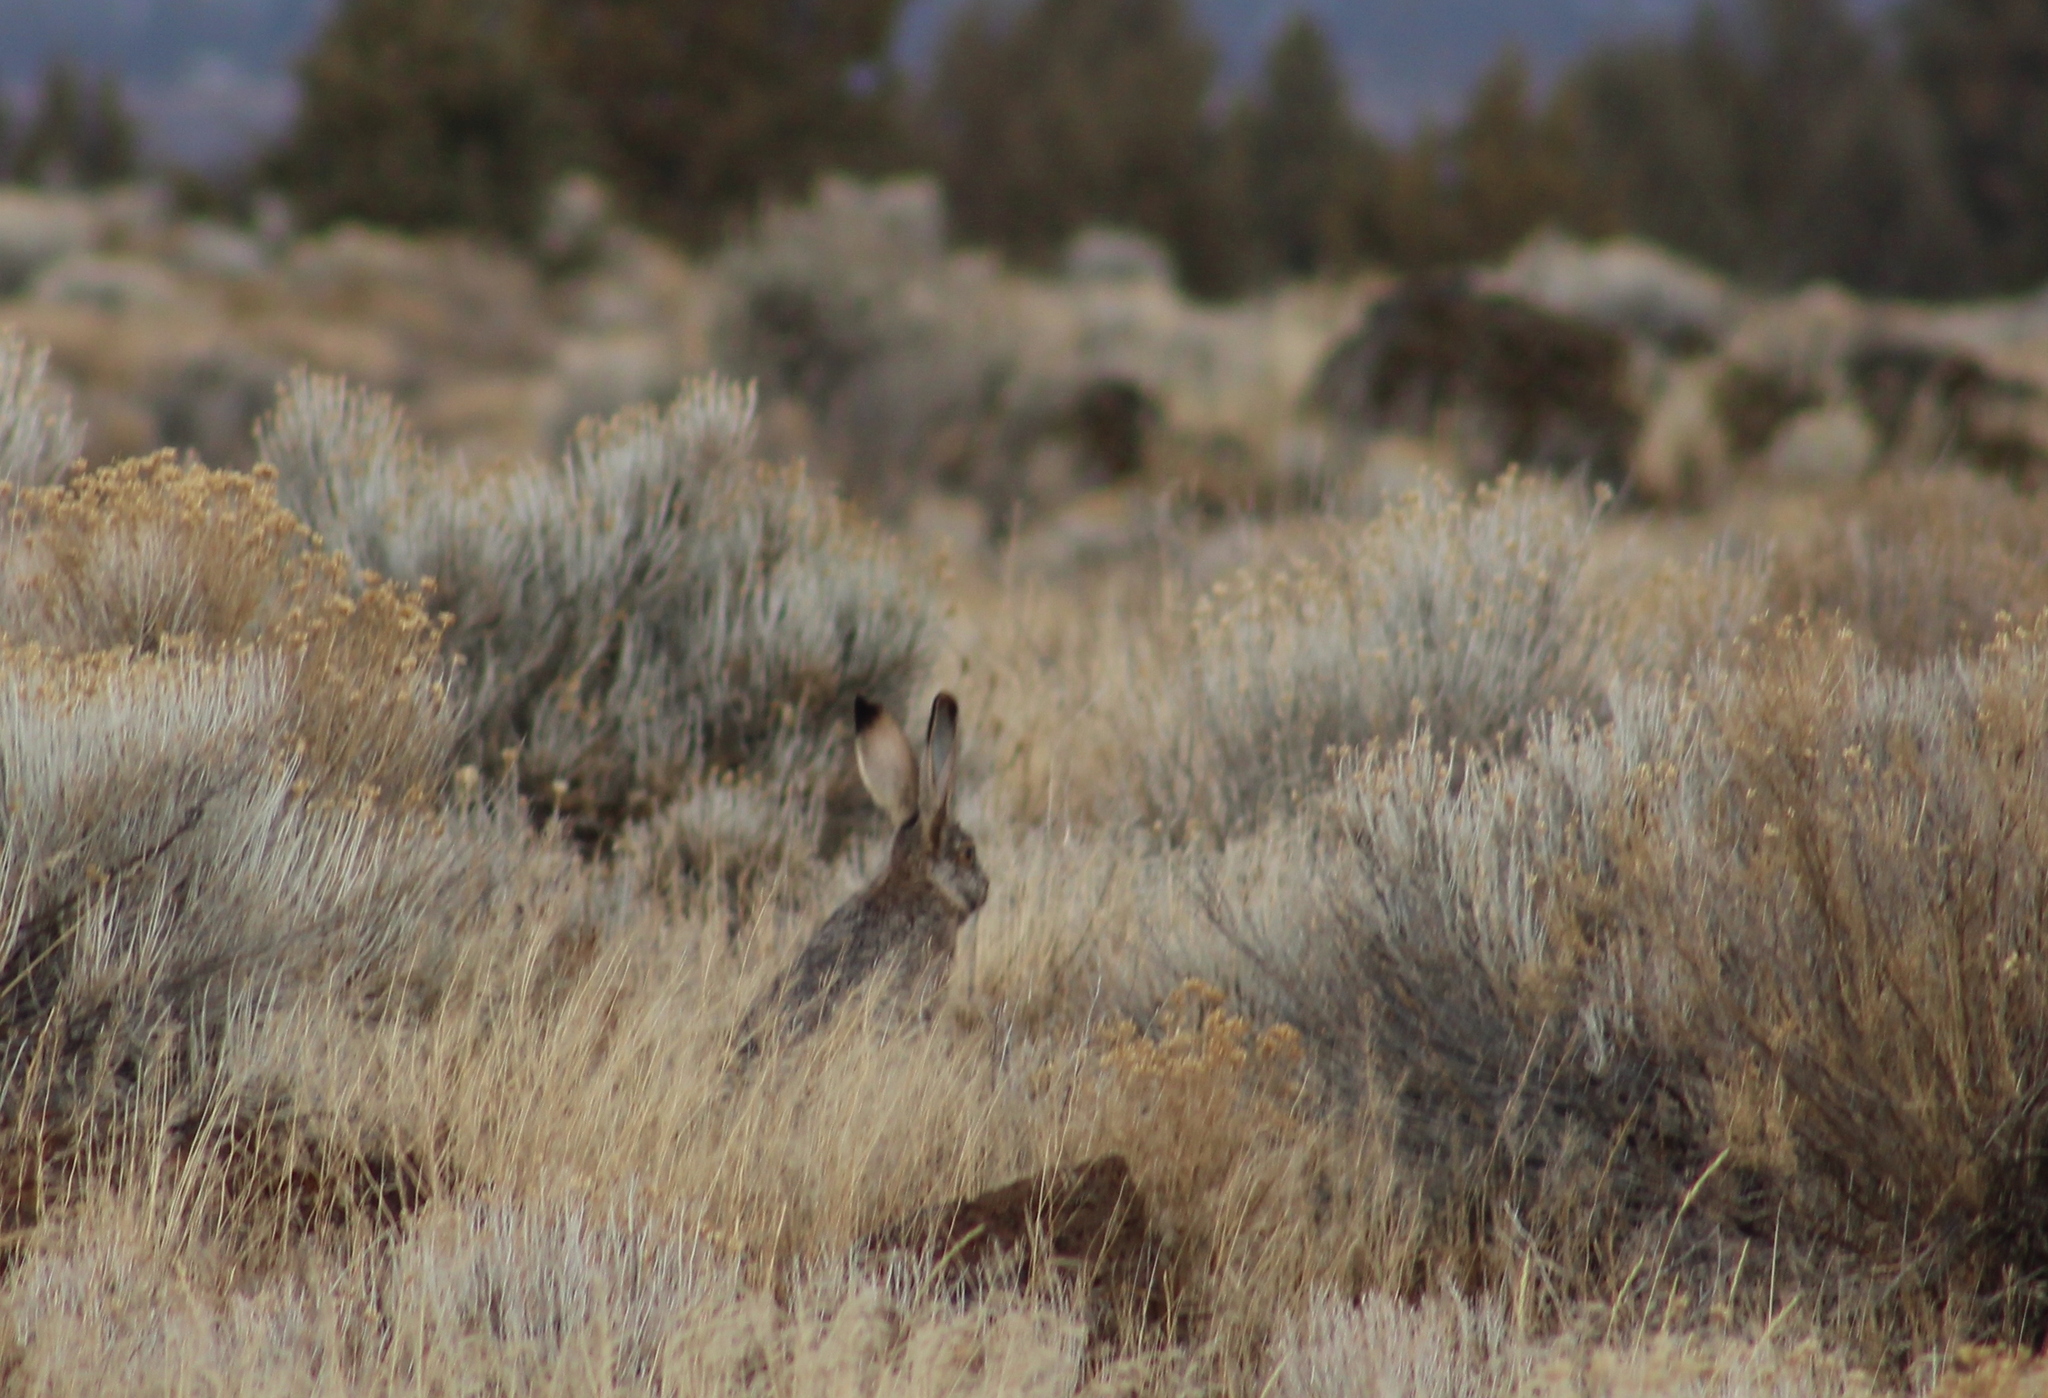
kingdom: Animalia
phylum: Chordata
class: Mammalia
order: Lagomorpha
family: Leporidae
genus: Lepus
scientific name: Lepus californicus
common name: Black-tailed jackrabbit
